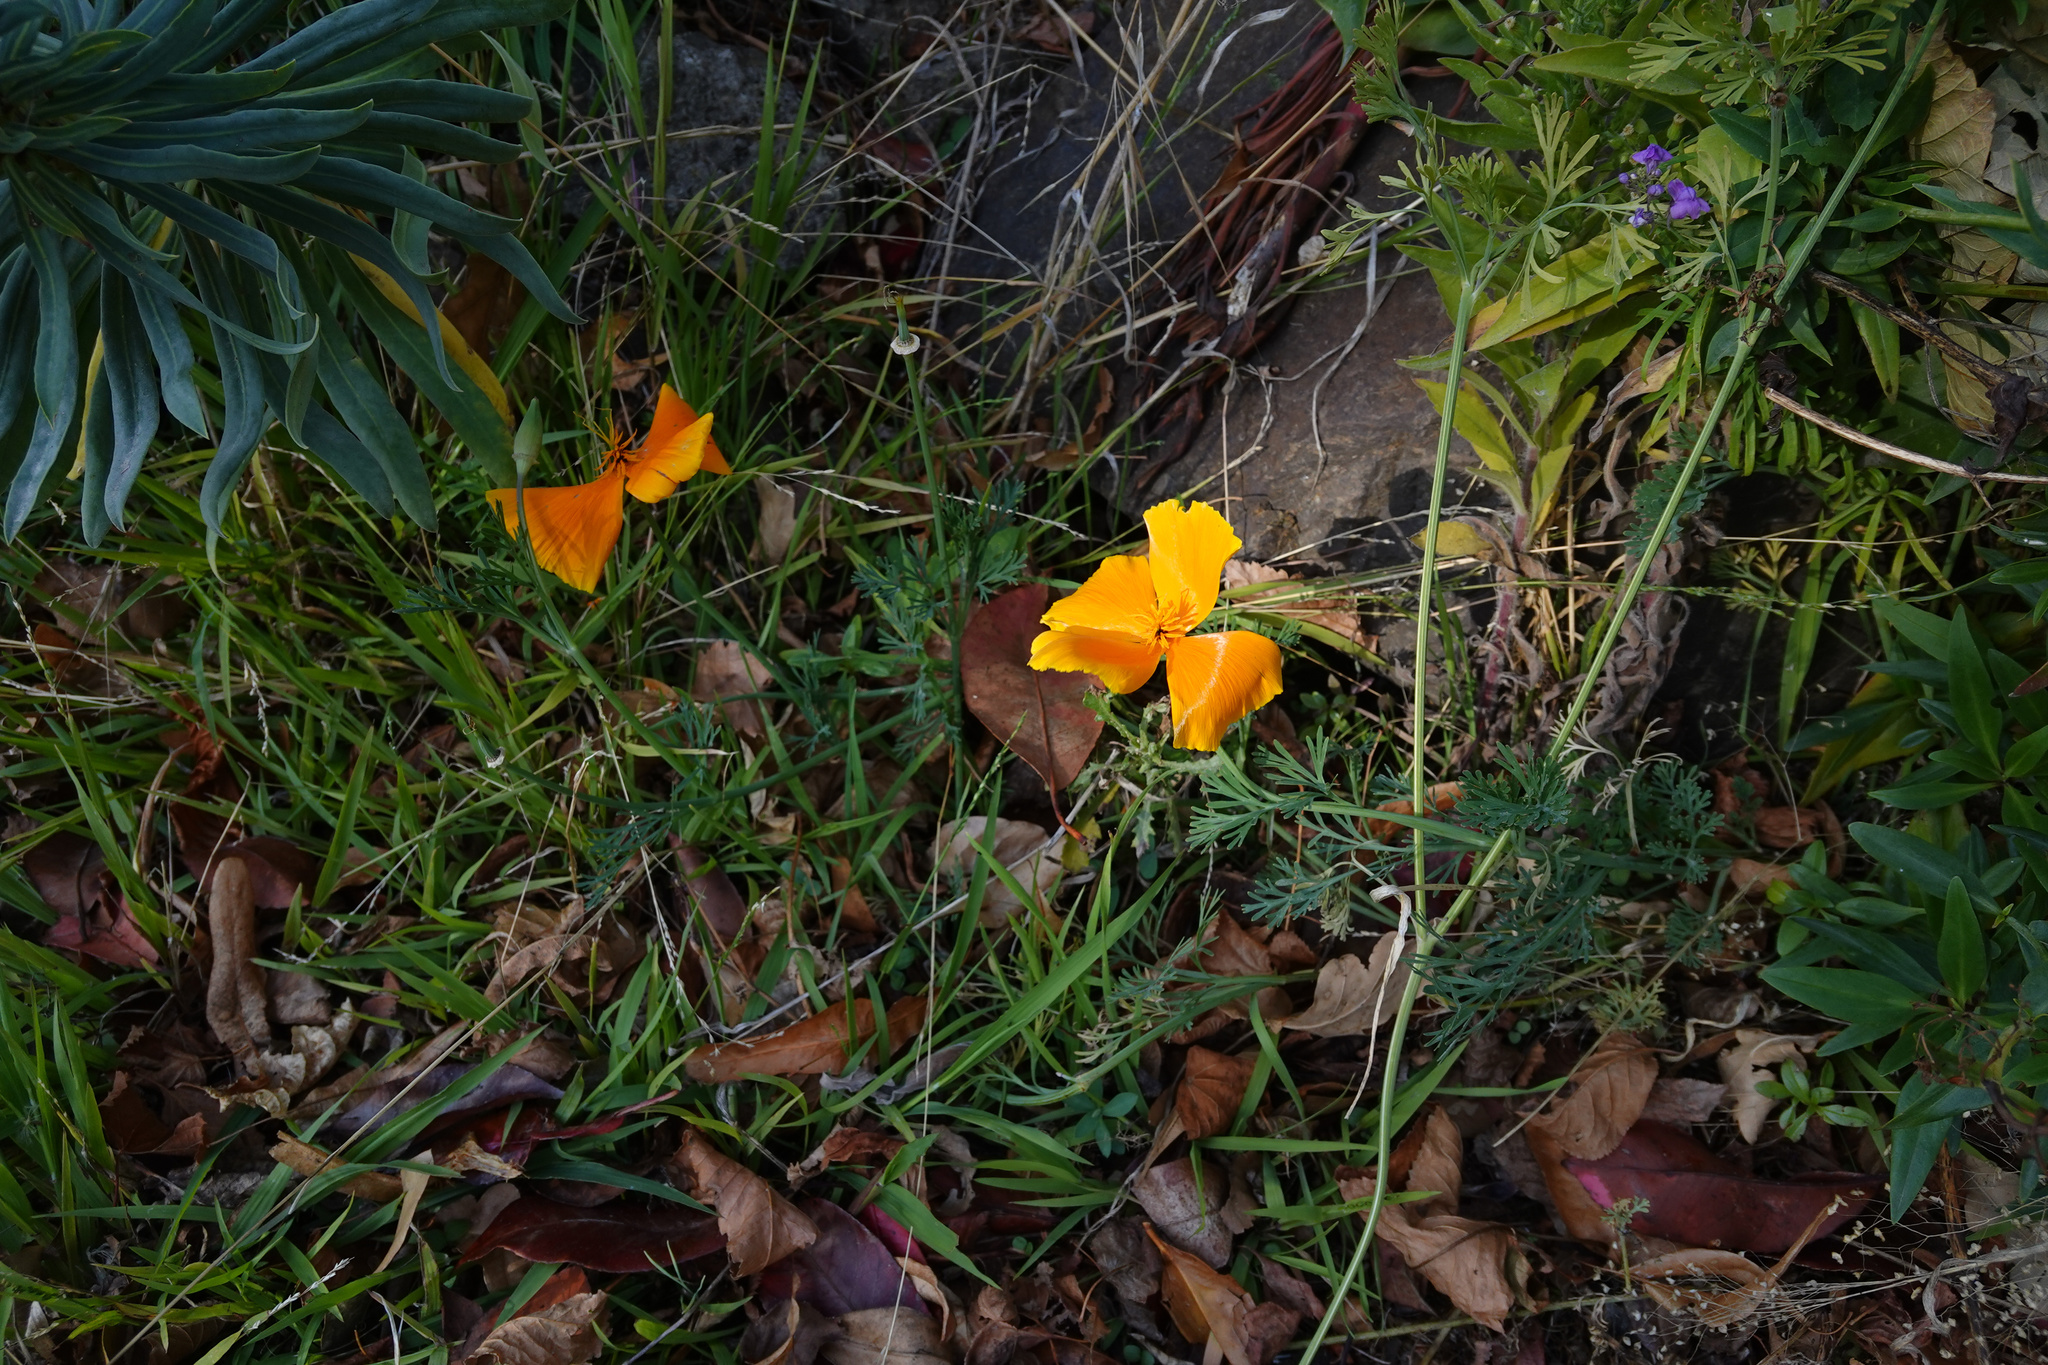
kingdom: Plantae
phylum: Tracheophyta
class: Magnoliopsida
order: Ranunculales
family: Papaveraceae
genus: Eschscholzia
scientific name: Eschscholzia californica
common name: California poppy
